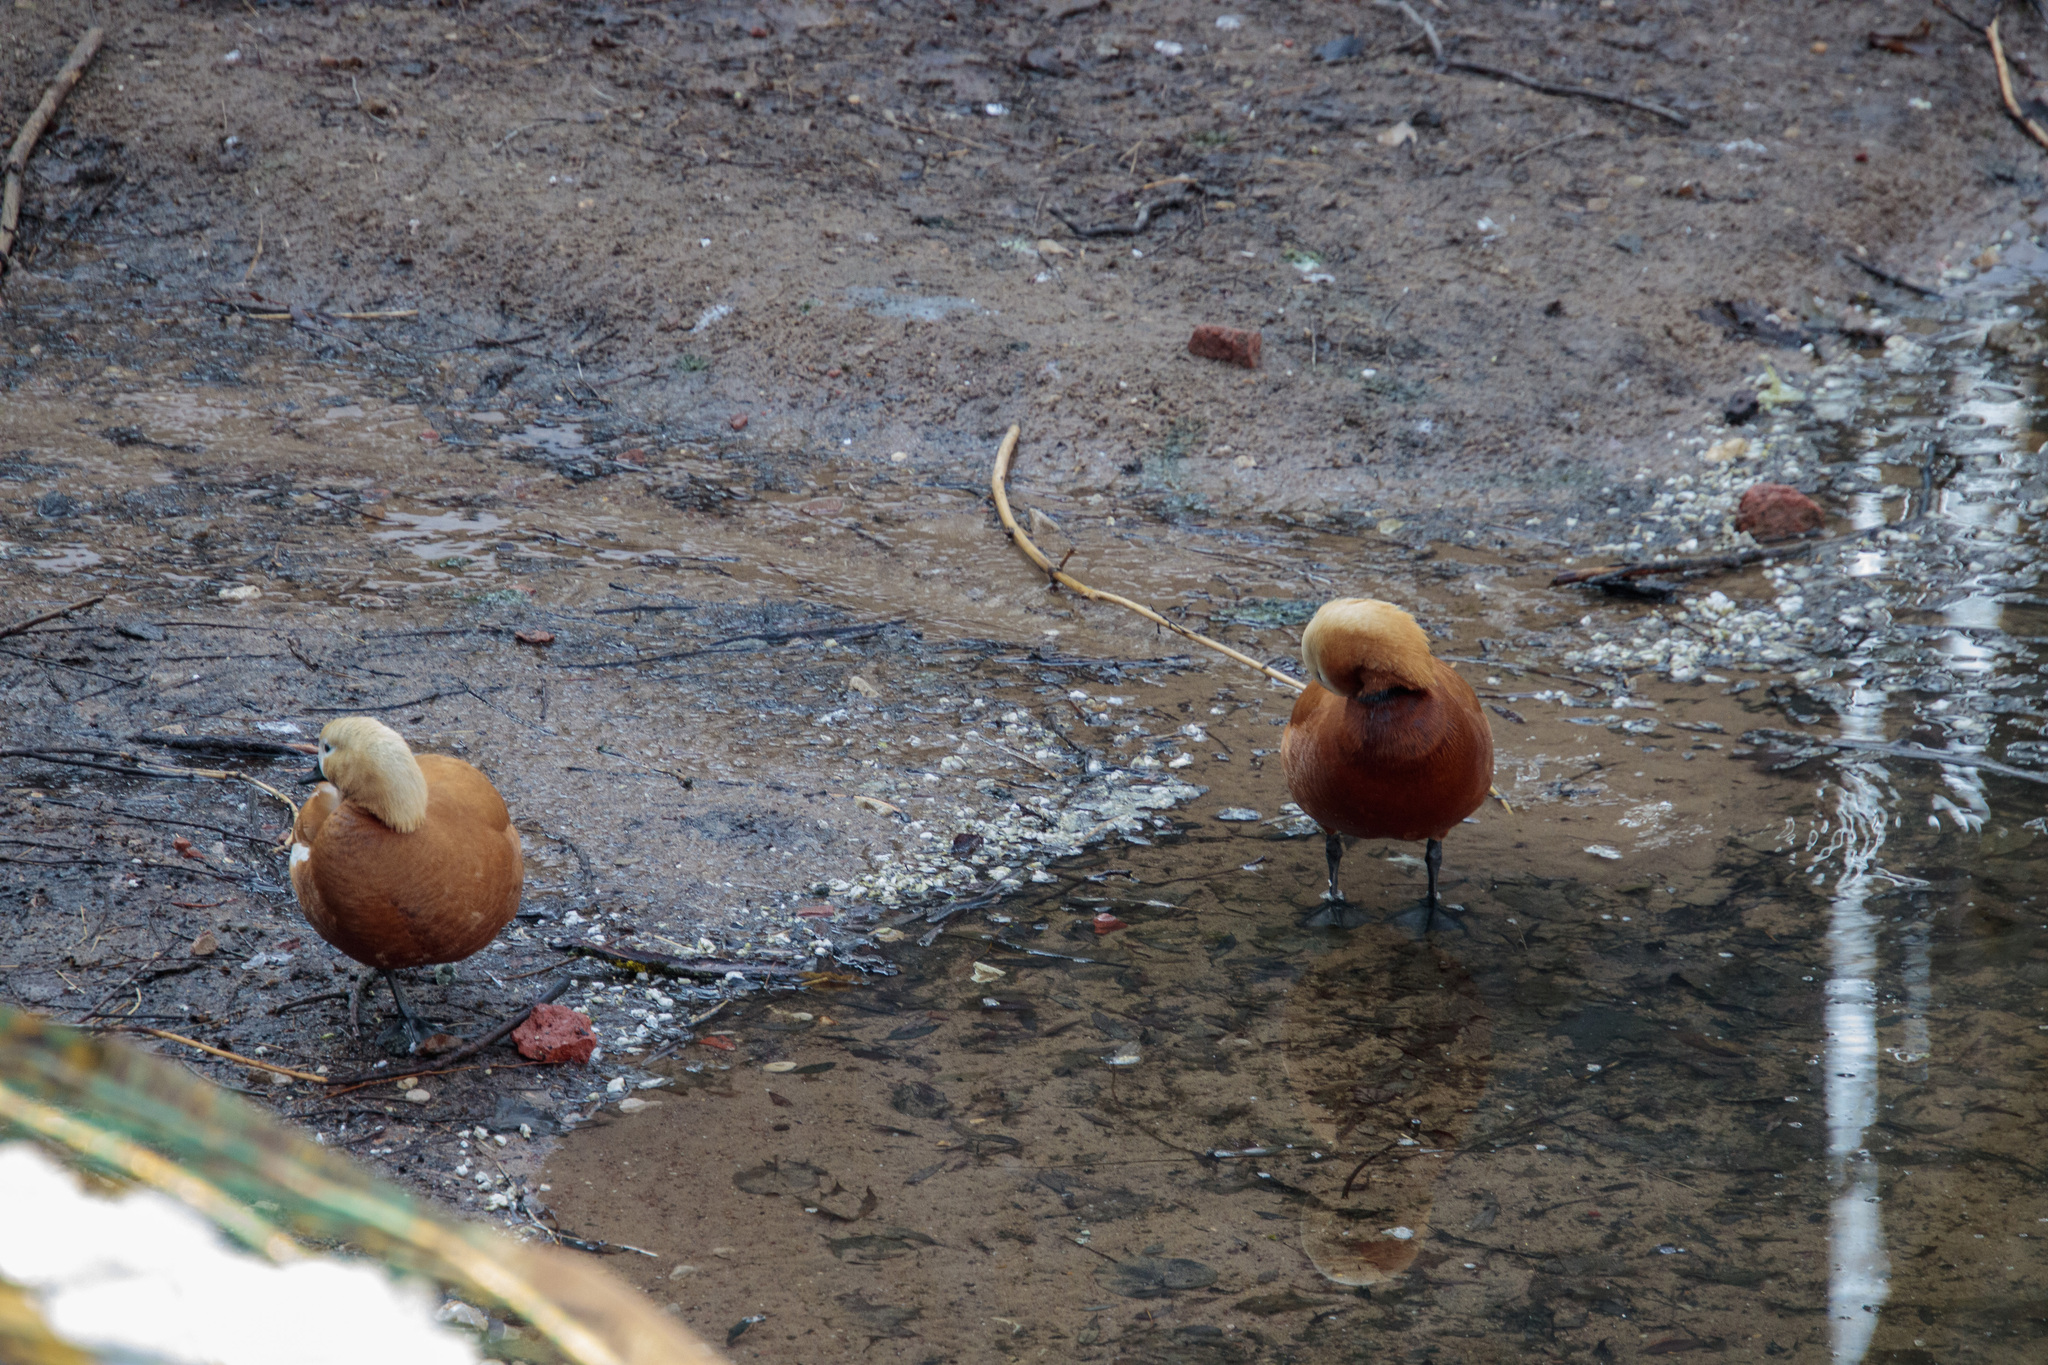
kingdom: Animalia
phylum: Chordata
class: Aves
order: Anseriformes
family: Anatidae
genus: Tadorna
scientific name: Tadorna ferruginea
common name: Ruddy shelduck
